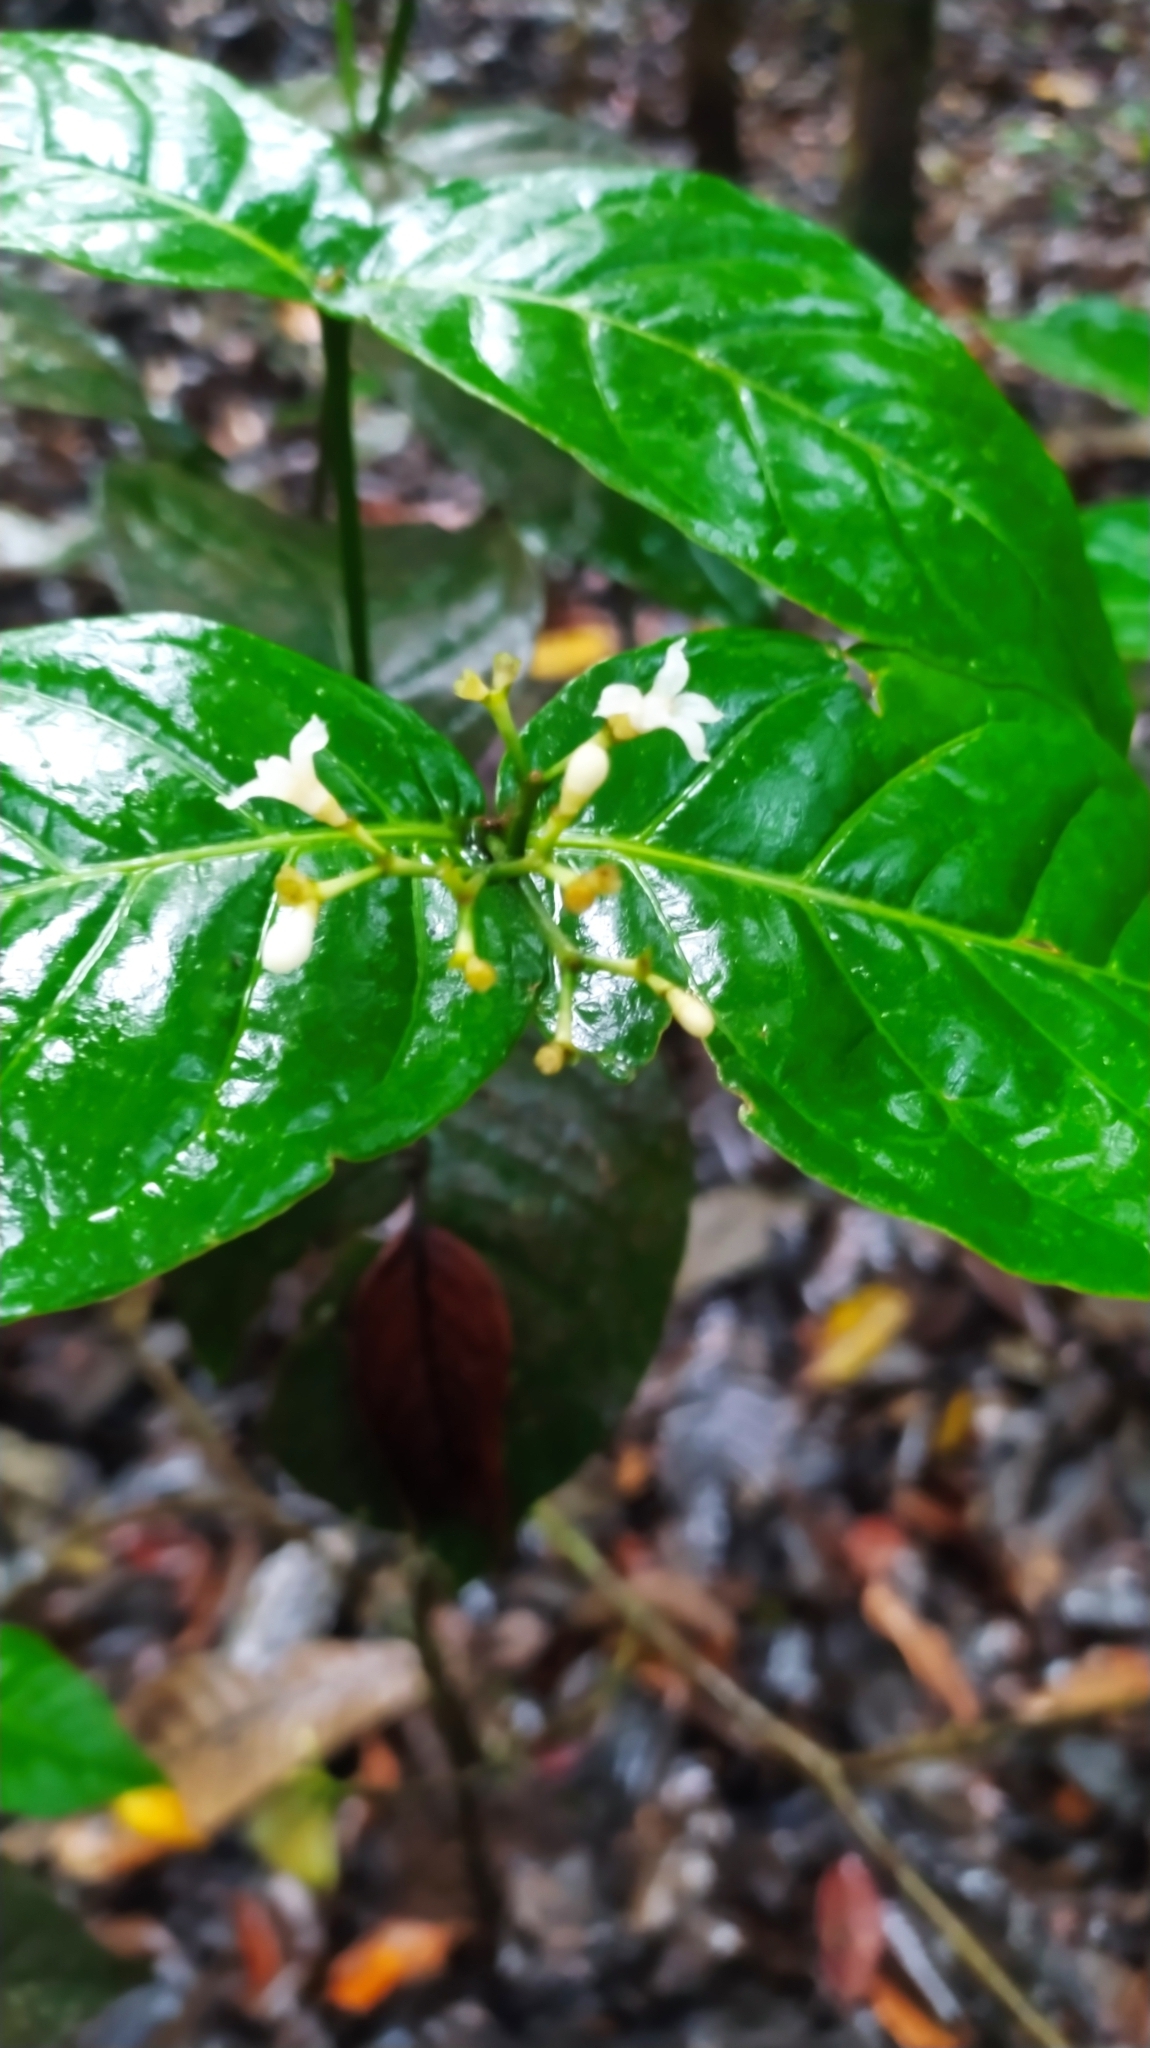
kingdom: Plantae
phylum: Tracheophyta
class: Magnoliopsida
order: Gentianales
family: Rubiaceae
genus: Palicourea
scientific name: Palicourea diminuta
